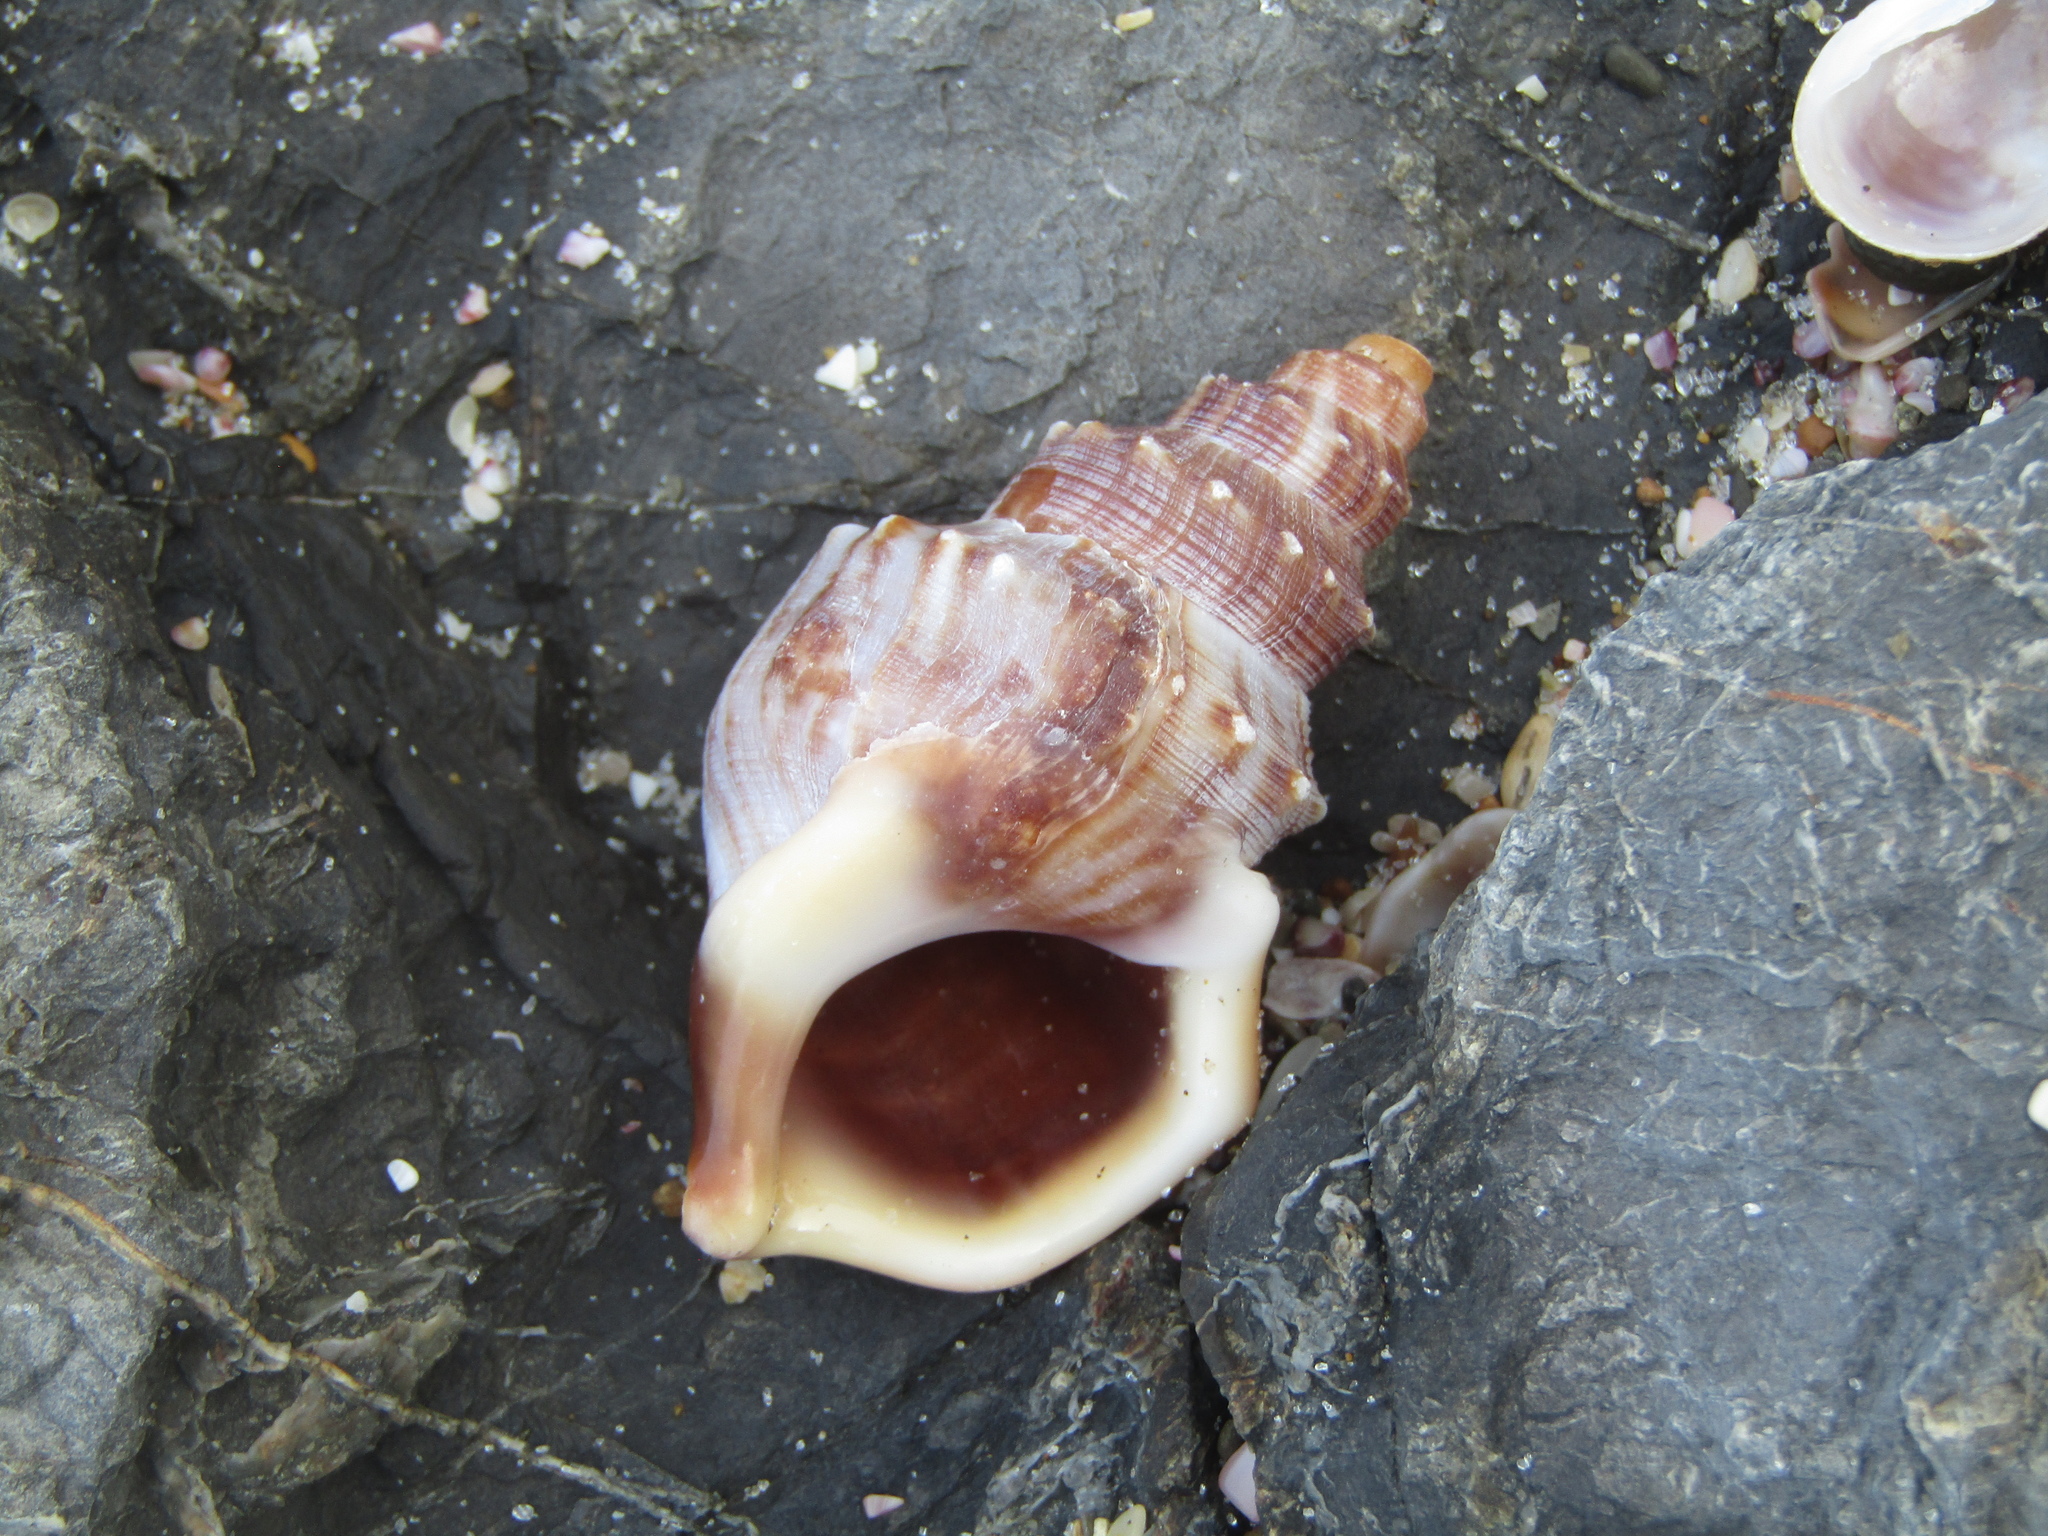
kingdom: Animalia
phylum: Mollusca
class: Gastropoda
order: Littorinimorpha
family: Struthiolariidae
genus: Struthiolaria
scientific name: Struthiolaria papulosa
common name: Large ostrich foot
